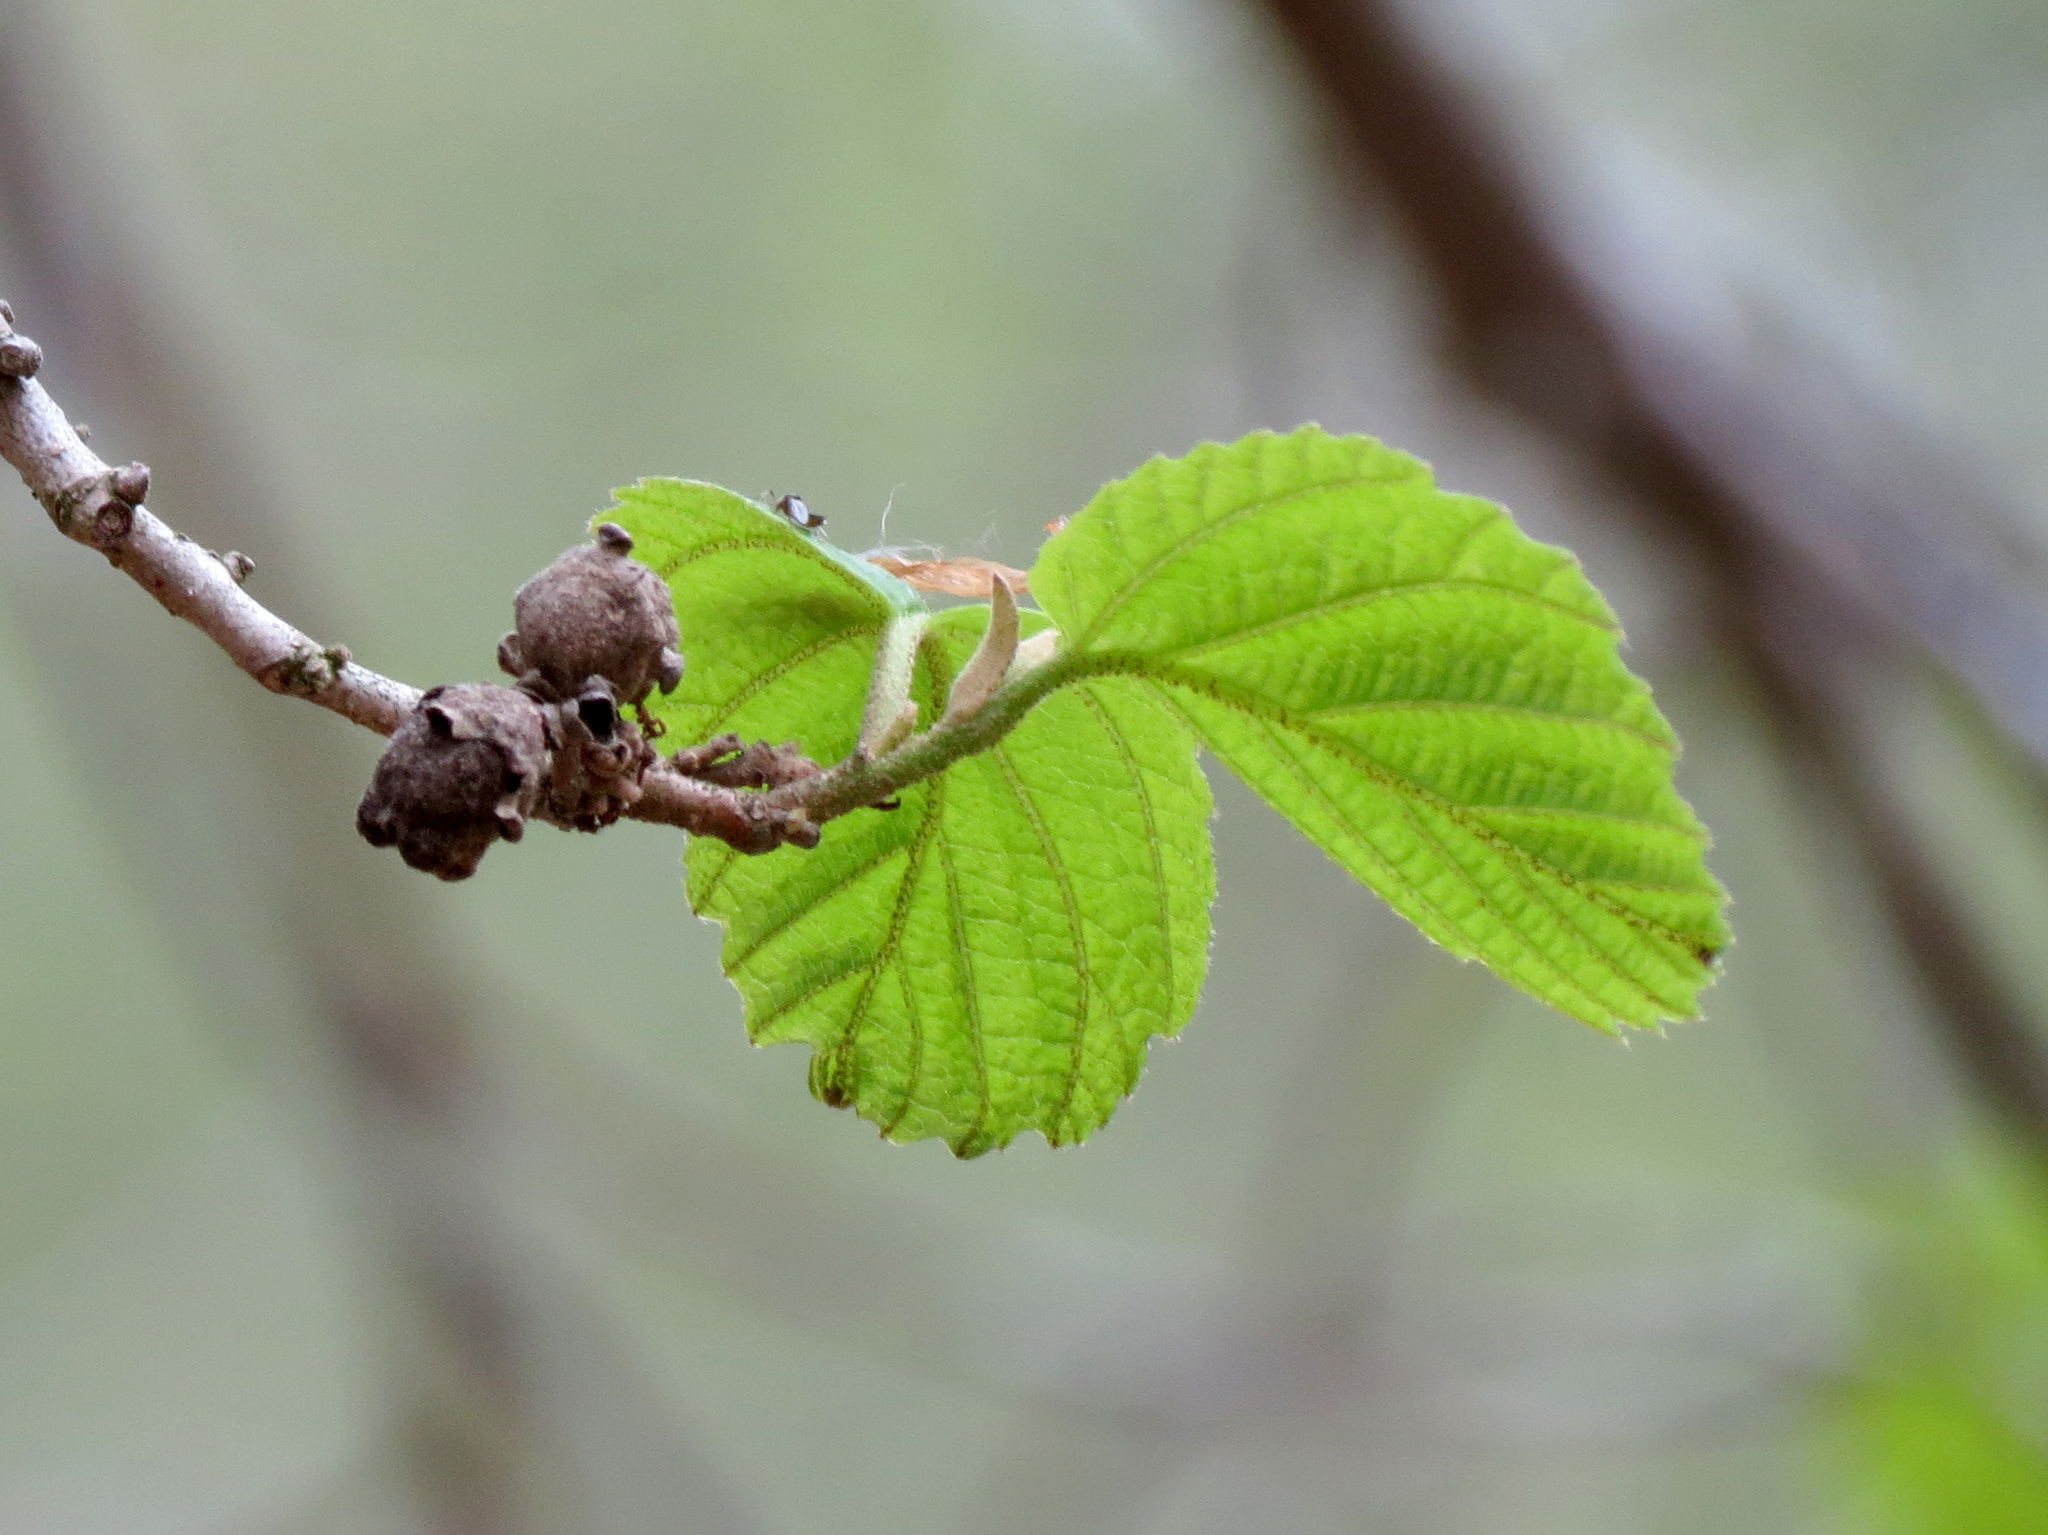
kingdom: Plantae
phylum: Tracheophyta
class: Magnoliopsida
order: Saxifragales
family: Hamamelidaceae
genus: Hamamelis
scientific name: Hamamelis virginiana
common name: Witch-hazel
